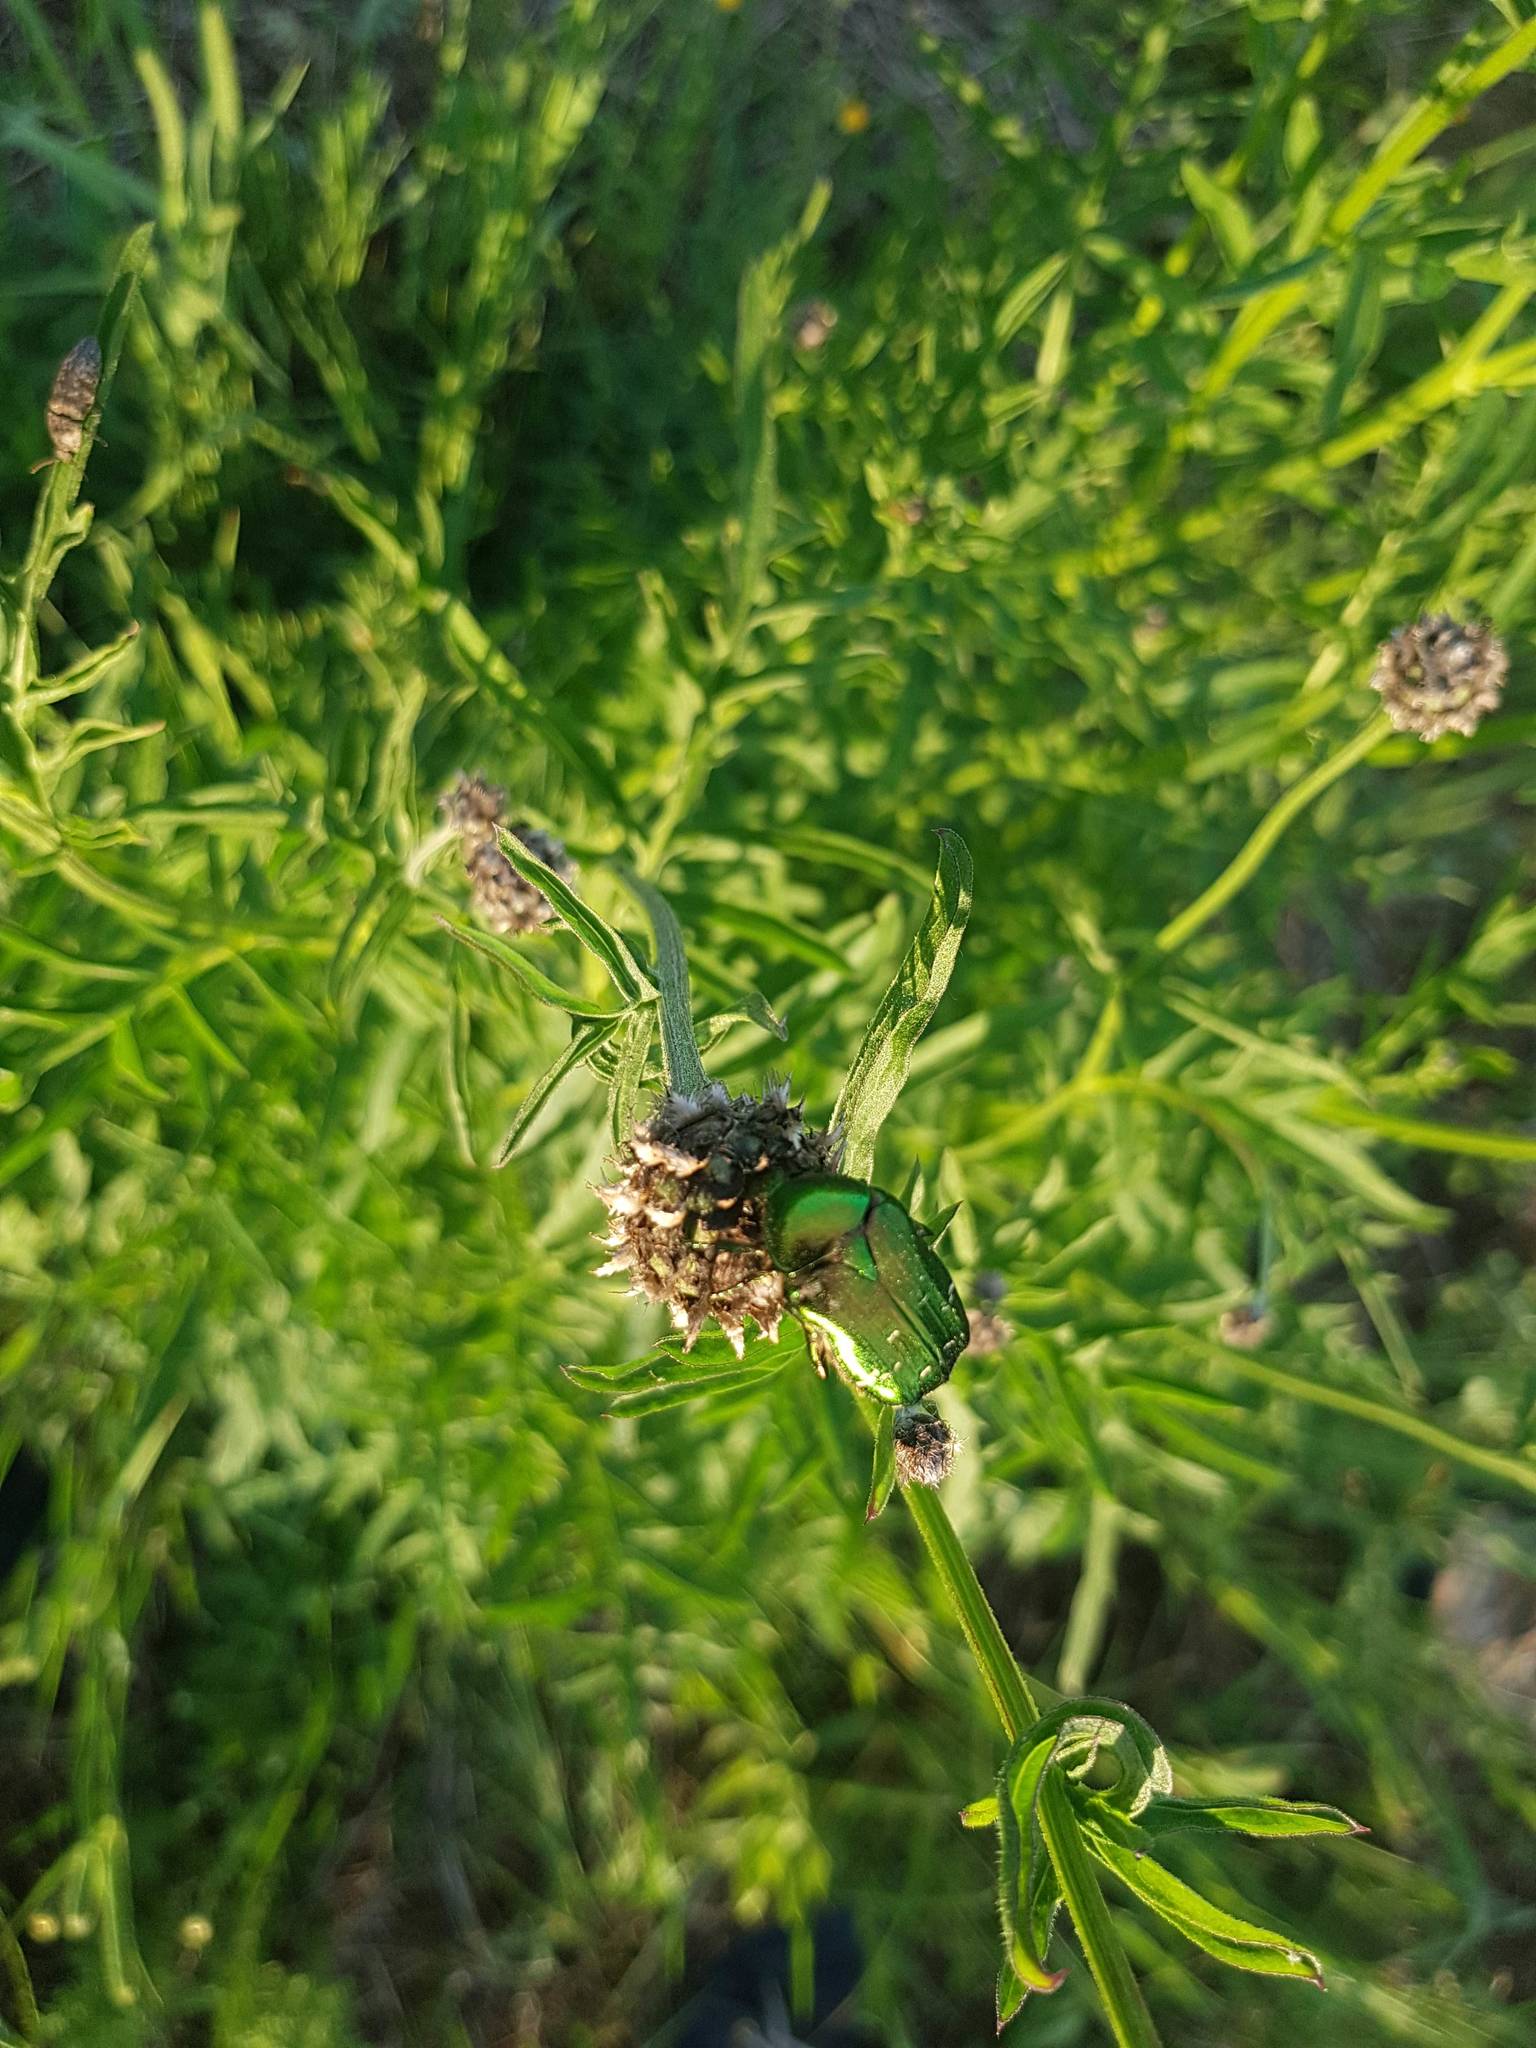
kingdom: Animalia
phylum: Arthropoda
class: Insecta
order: Coleoptera
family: Scarabaeidae
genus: Cetonia
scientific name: Cetonia aurata
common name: Rose chafer
